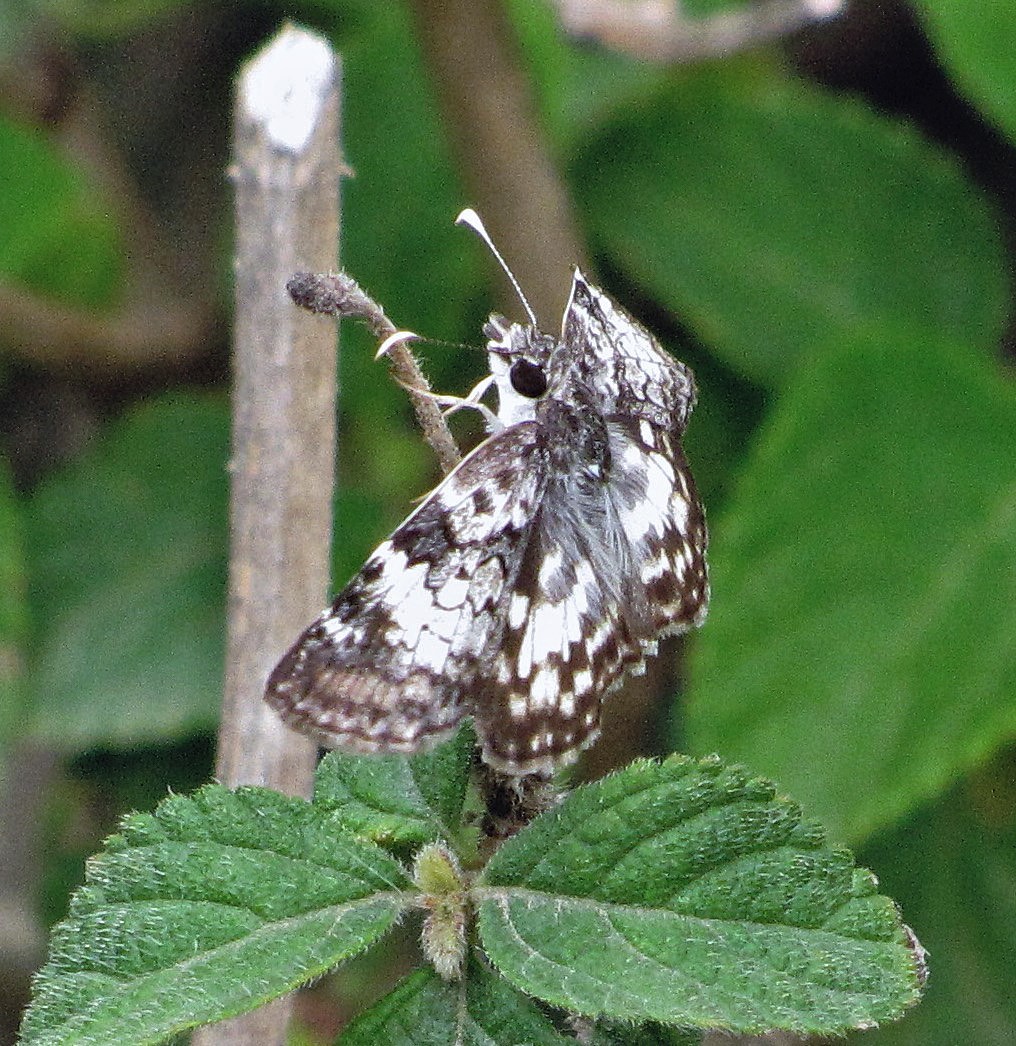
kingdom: Animalia
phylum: Arthropoda
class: Insecta
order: Lepidoptera
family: Hesperiidae
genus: Chiomara
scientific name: Chiomara asychis
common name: White-patterned skipper
